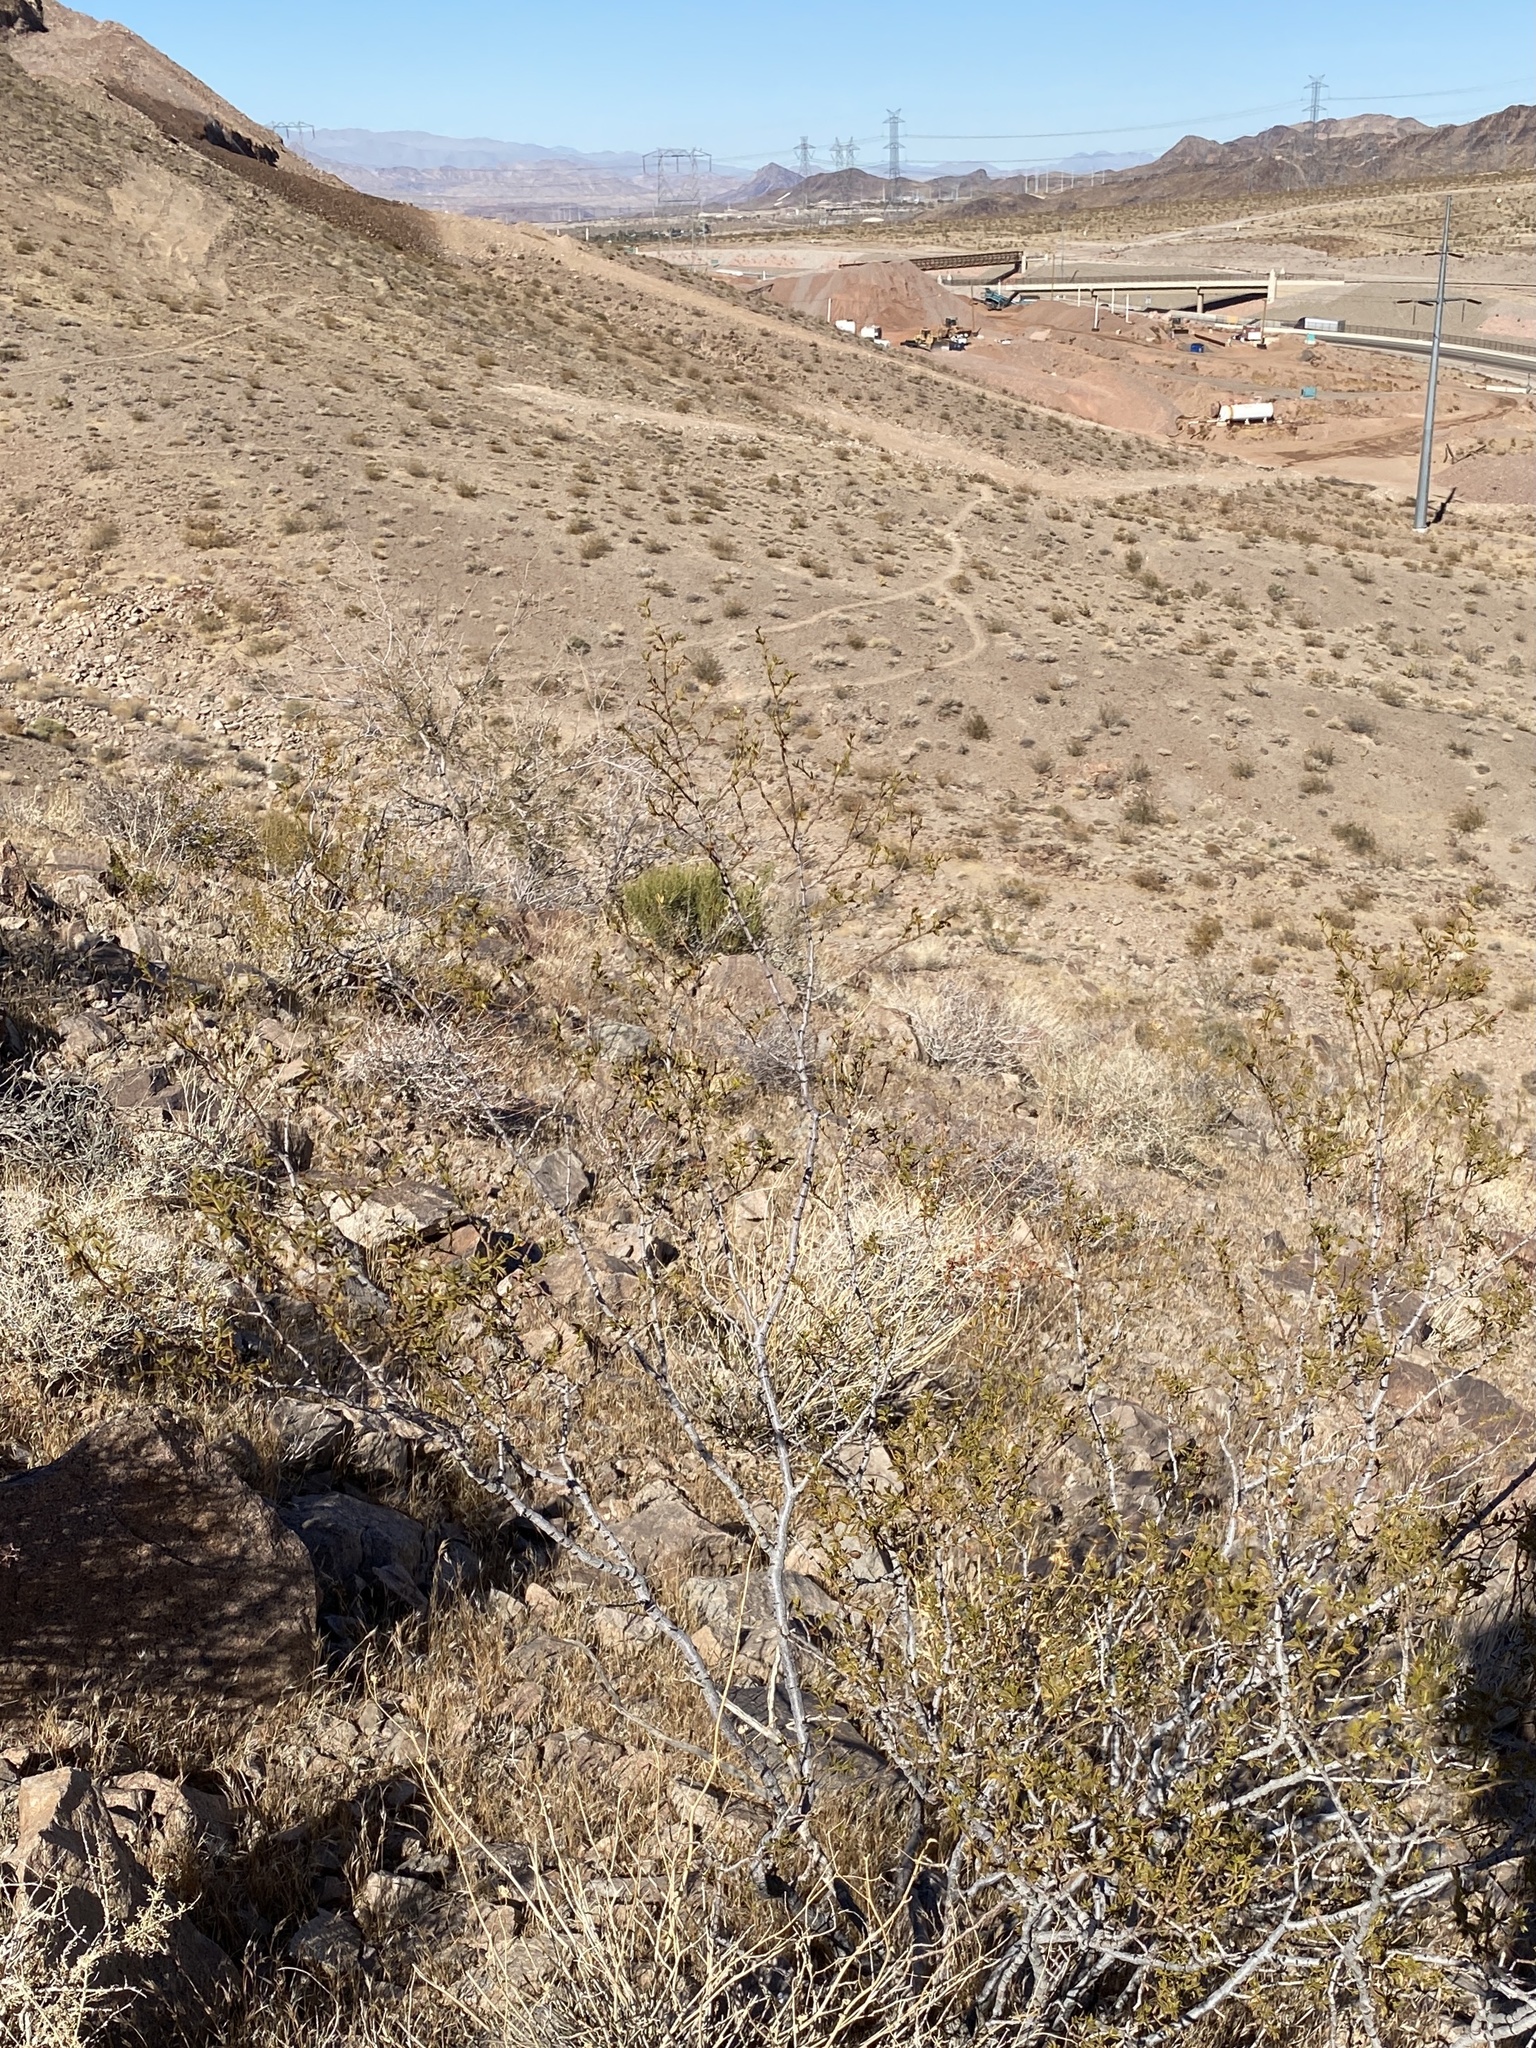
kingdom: Plantae
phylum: Tracheophyta
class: Magnoliopsida
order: Zygophyllales
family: Zygophyllaceae
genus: Larrea
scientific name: Larrea tridentata
